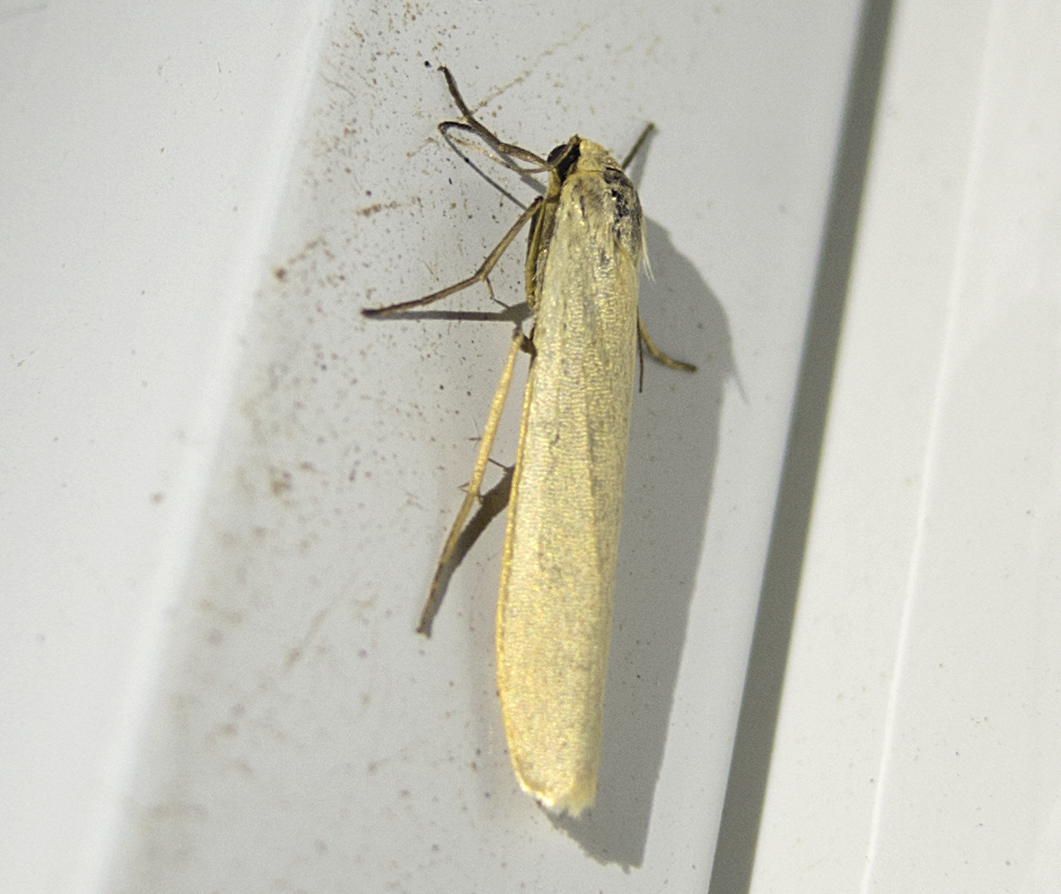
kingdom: Animalia
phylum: Arthropoda
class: Insecta
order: Lepidoptera
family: Erebidae
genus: Eilema
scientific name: Eilema
